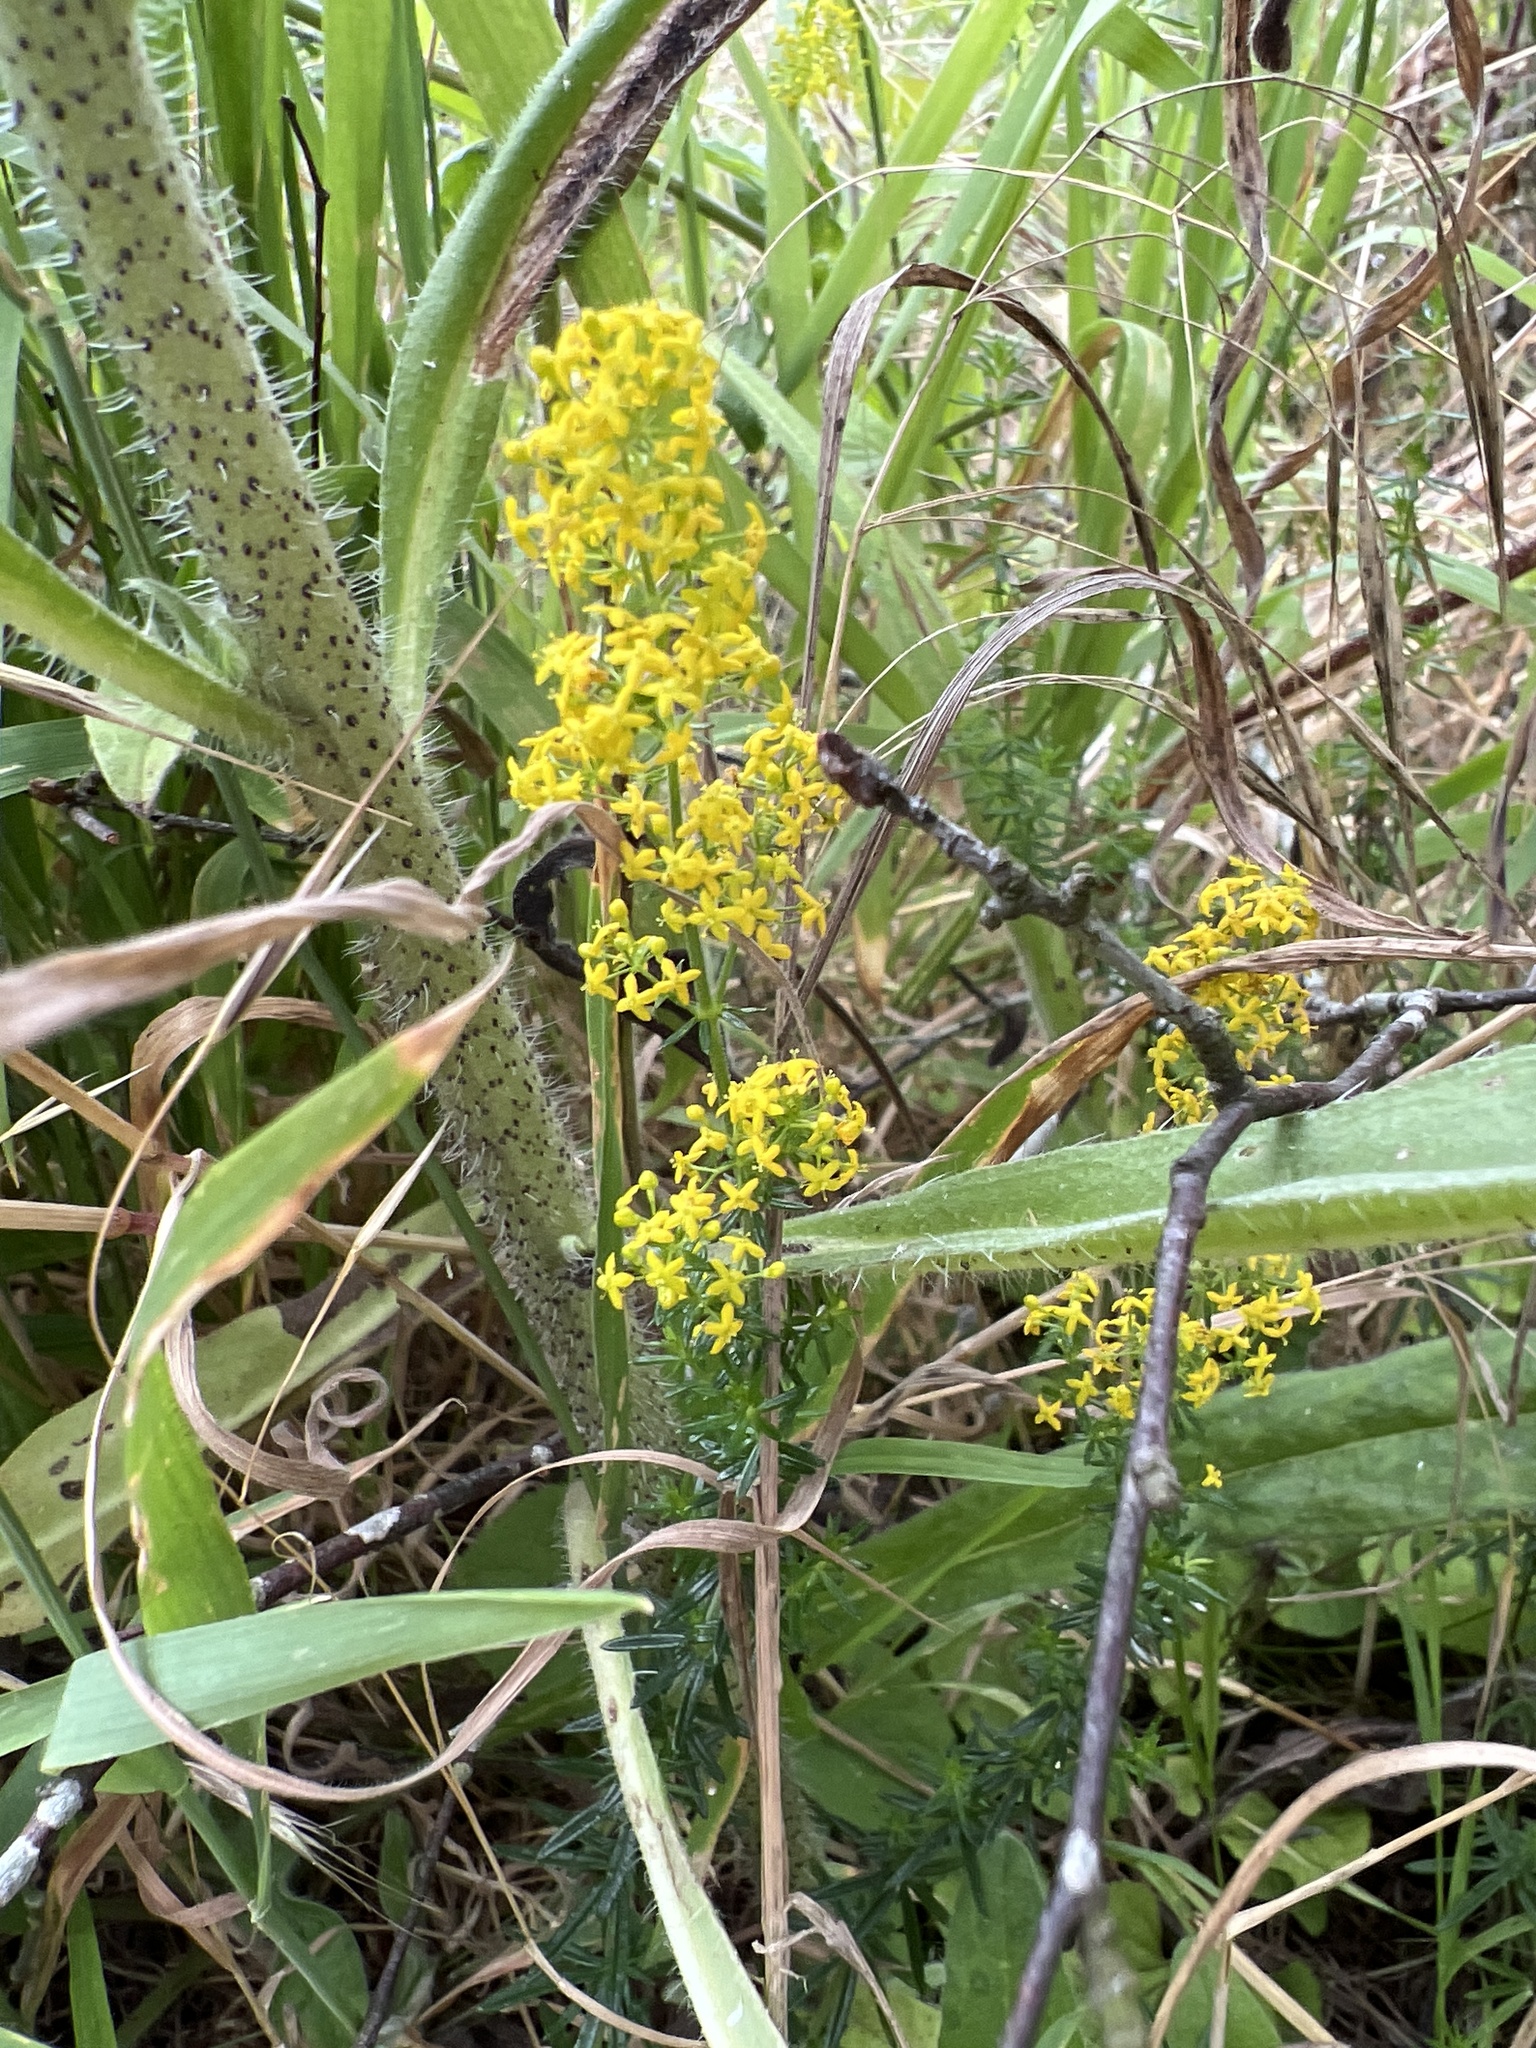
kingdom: Plantae
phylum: Tracheophyta
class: Magnoliopsida
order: Gentianales
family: Rubiaceae
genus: Galium
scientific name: Galium verum
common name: Lady's bedstraw
